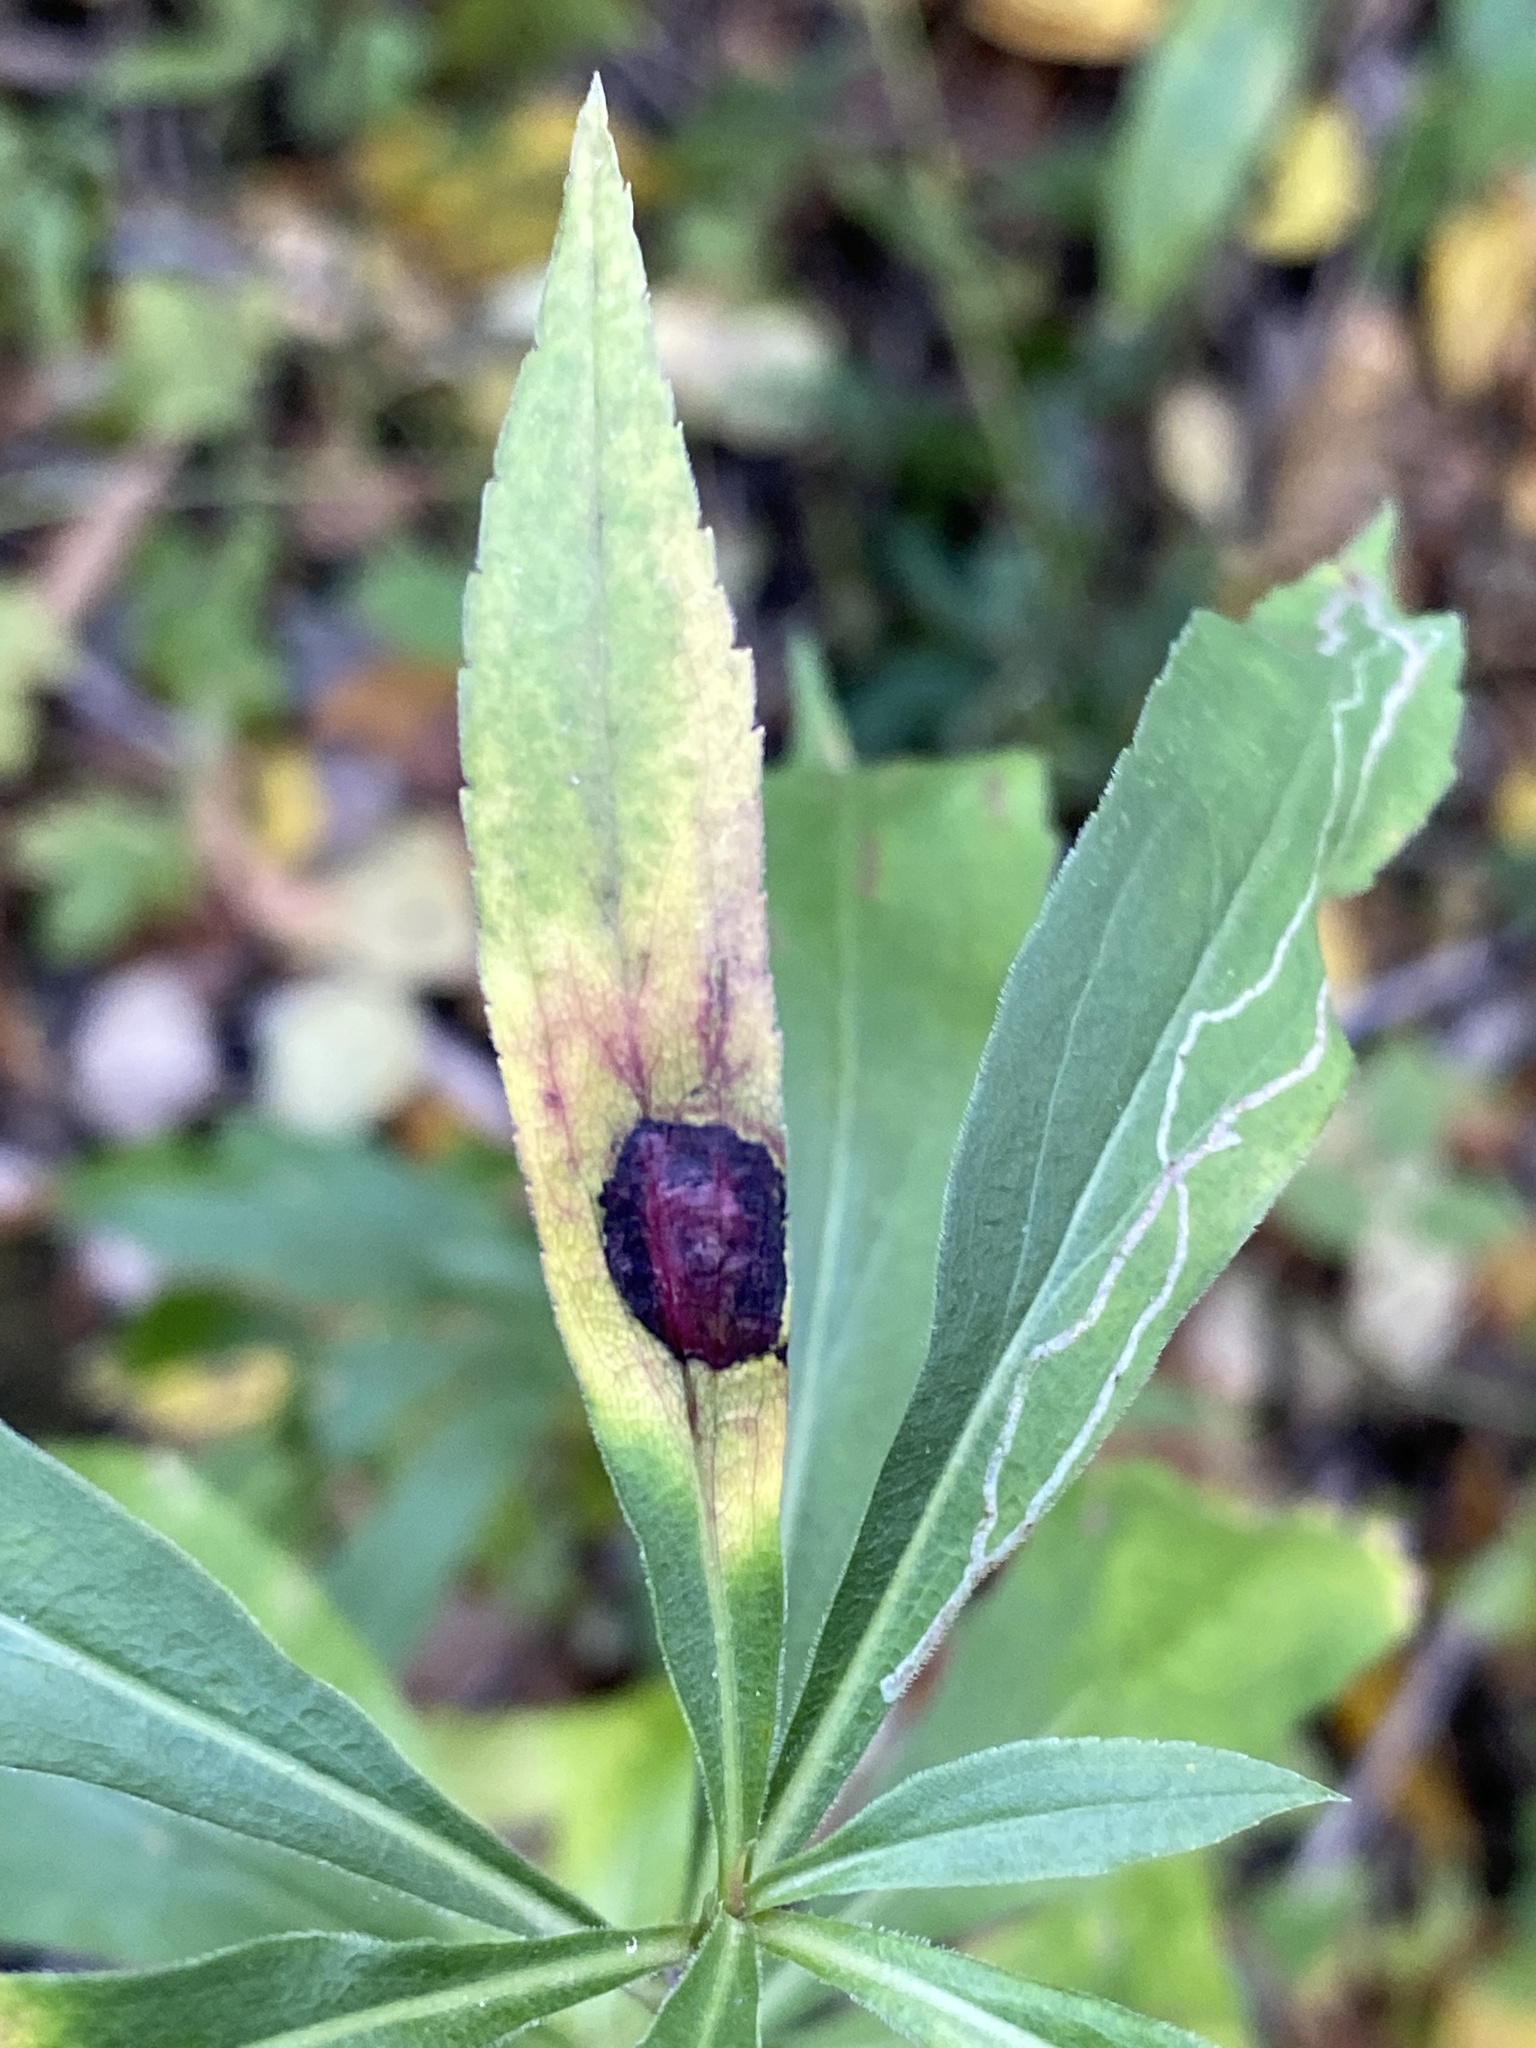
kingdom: Animalia
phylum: Arthropoda
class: Insecta
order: Diptera
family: Cecidomyiidae
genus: Asteromyia
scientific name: Asteromyia carbonifera
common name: Carbonifera goldenrod gall midge
